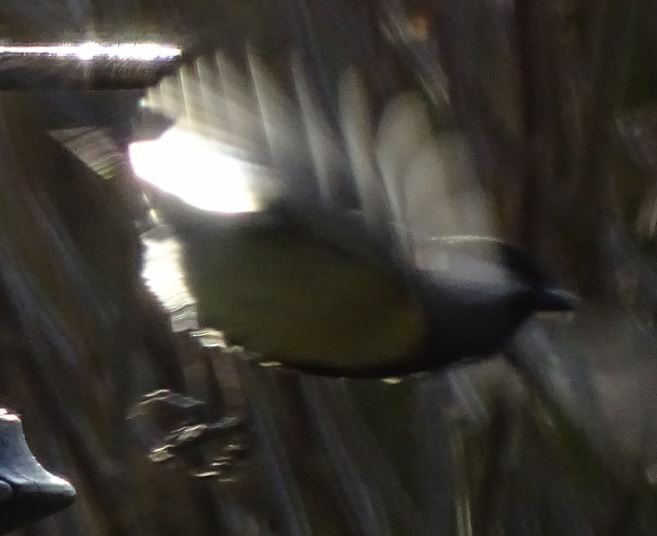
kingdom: Animalia
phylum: Chordata
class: Aves
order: Passeriformes
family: Paridae
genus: Parus
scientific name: Parus major
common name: Great tit
